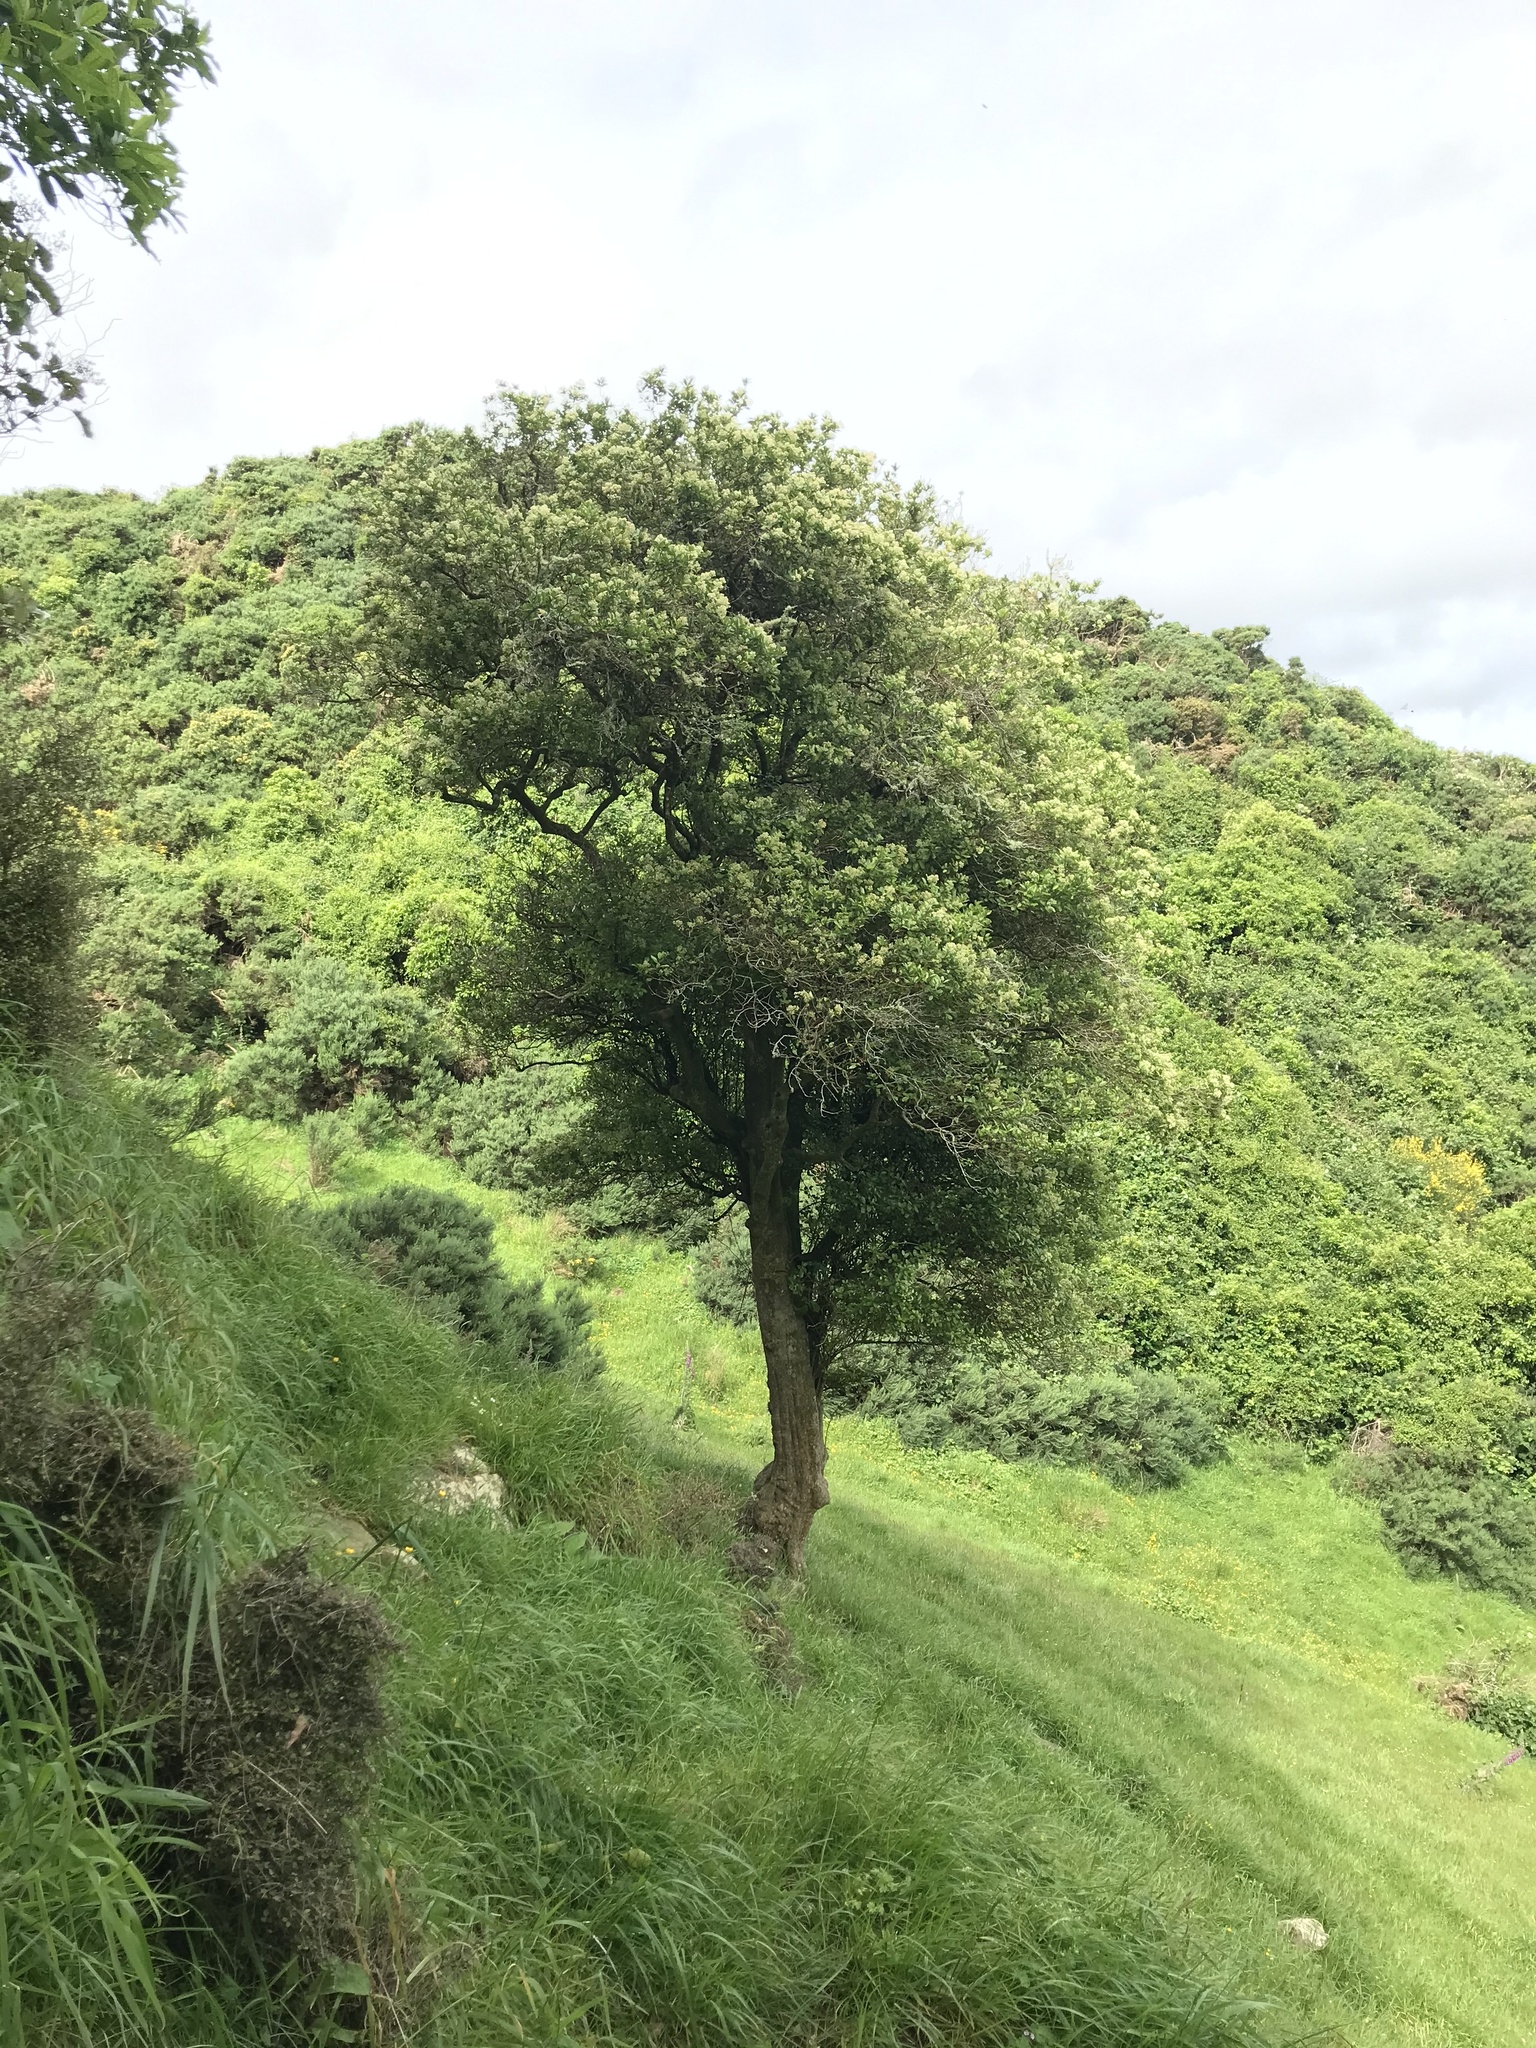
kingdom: Plantae
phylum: Tracheophyta
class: Magnoliopsida
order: Apiales
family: Pennantiaceae
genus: Pennantia
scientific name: Pennantia corymbosa
